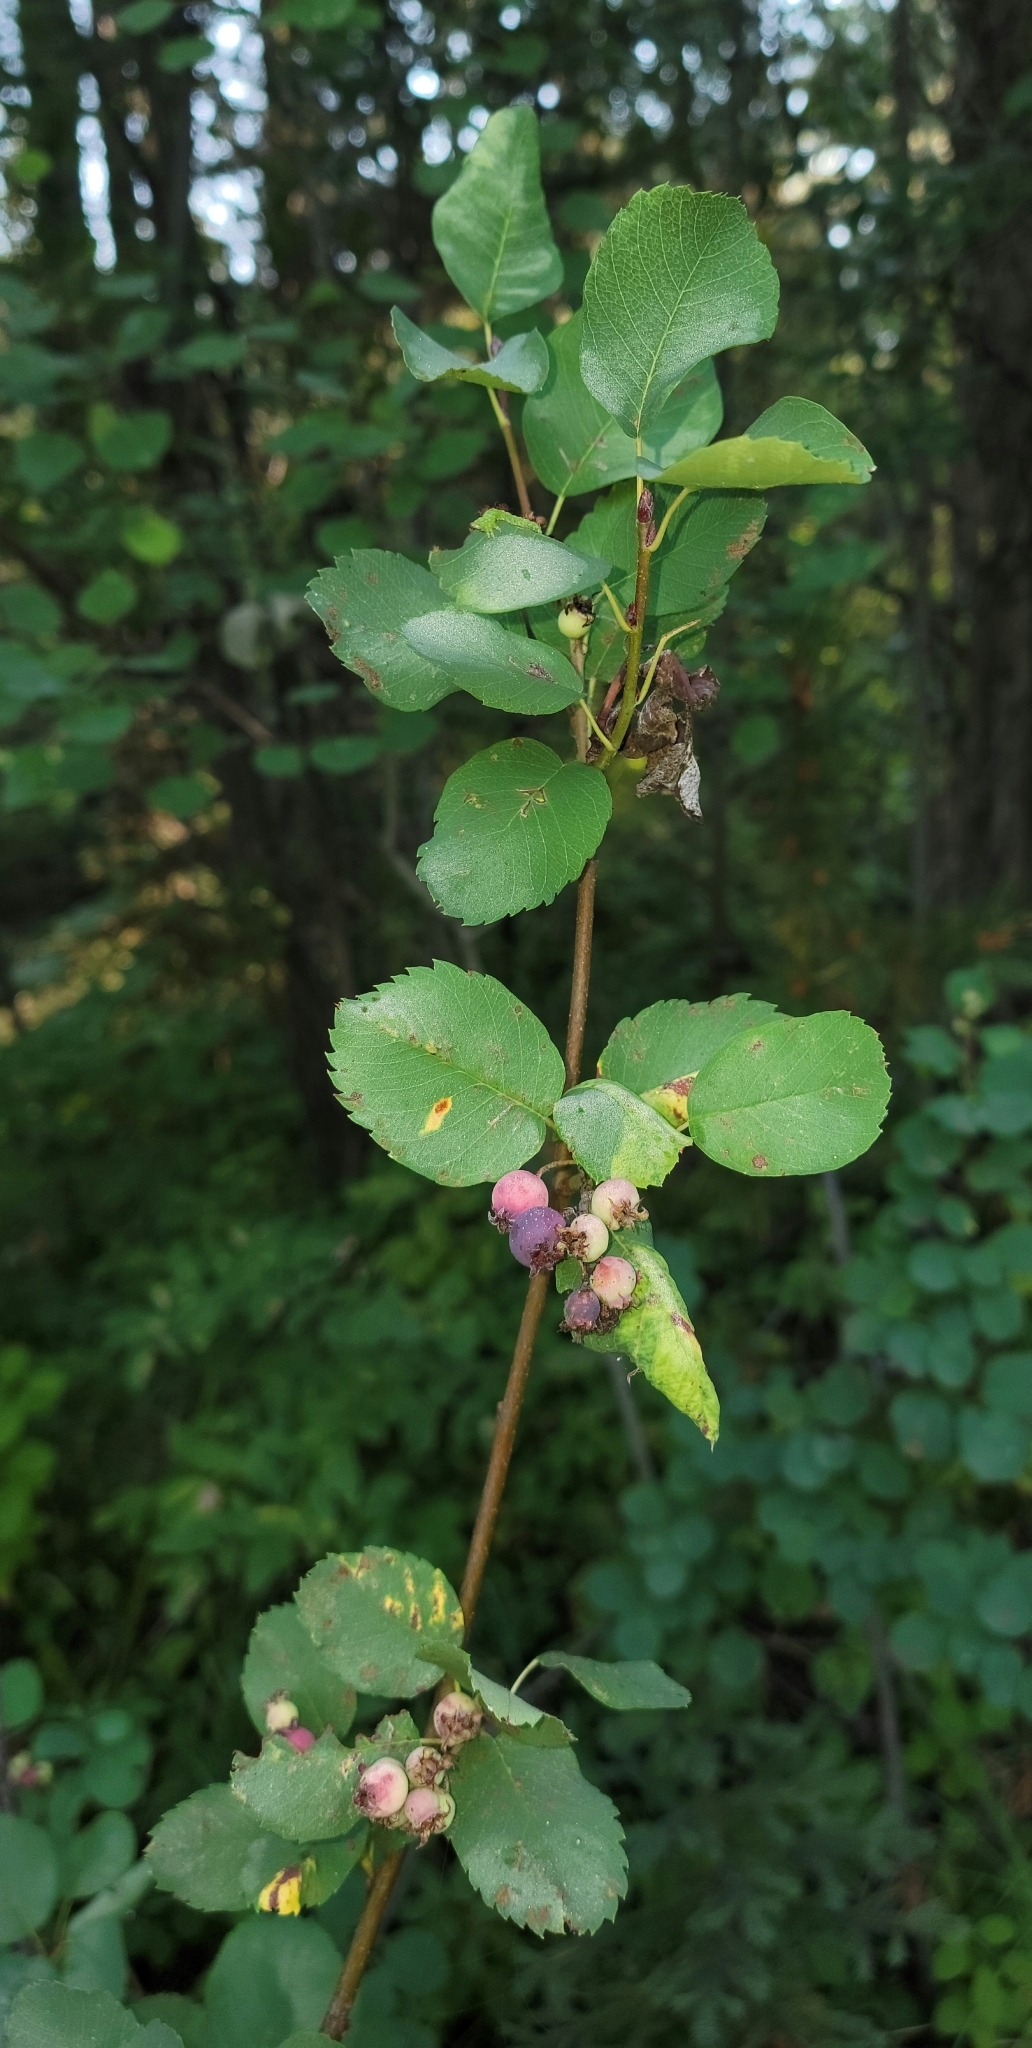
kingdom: Plantae
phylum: Tracheophyta
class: Magnoliopsida
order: Rosales
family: Rosaceae
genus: Amelanchier
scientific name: Amelanchier alnifolia
